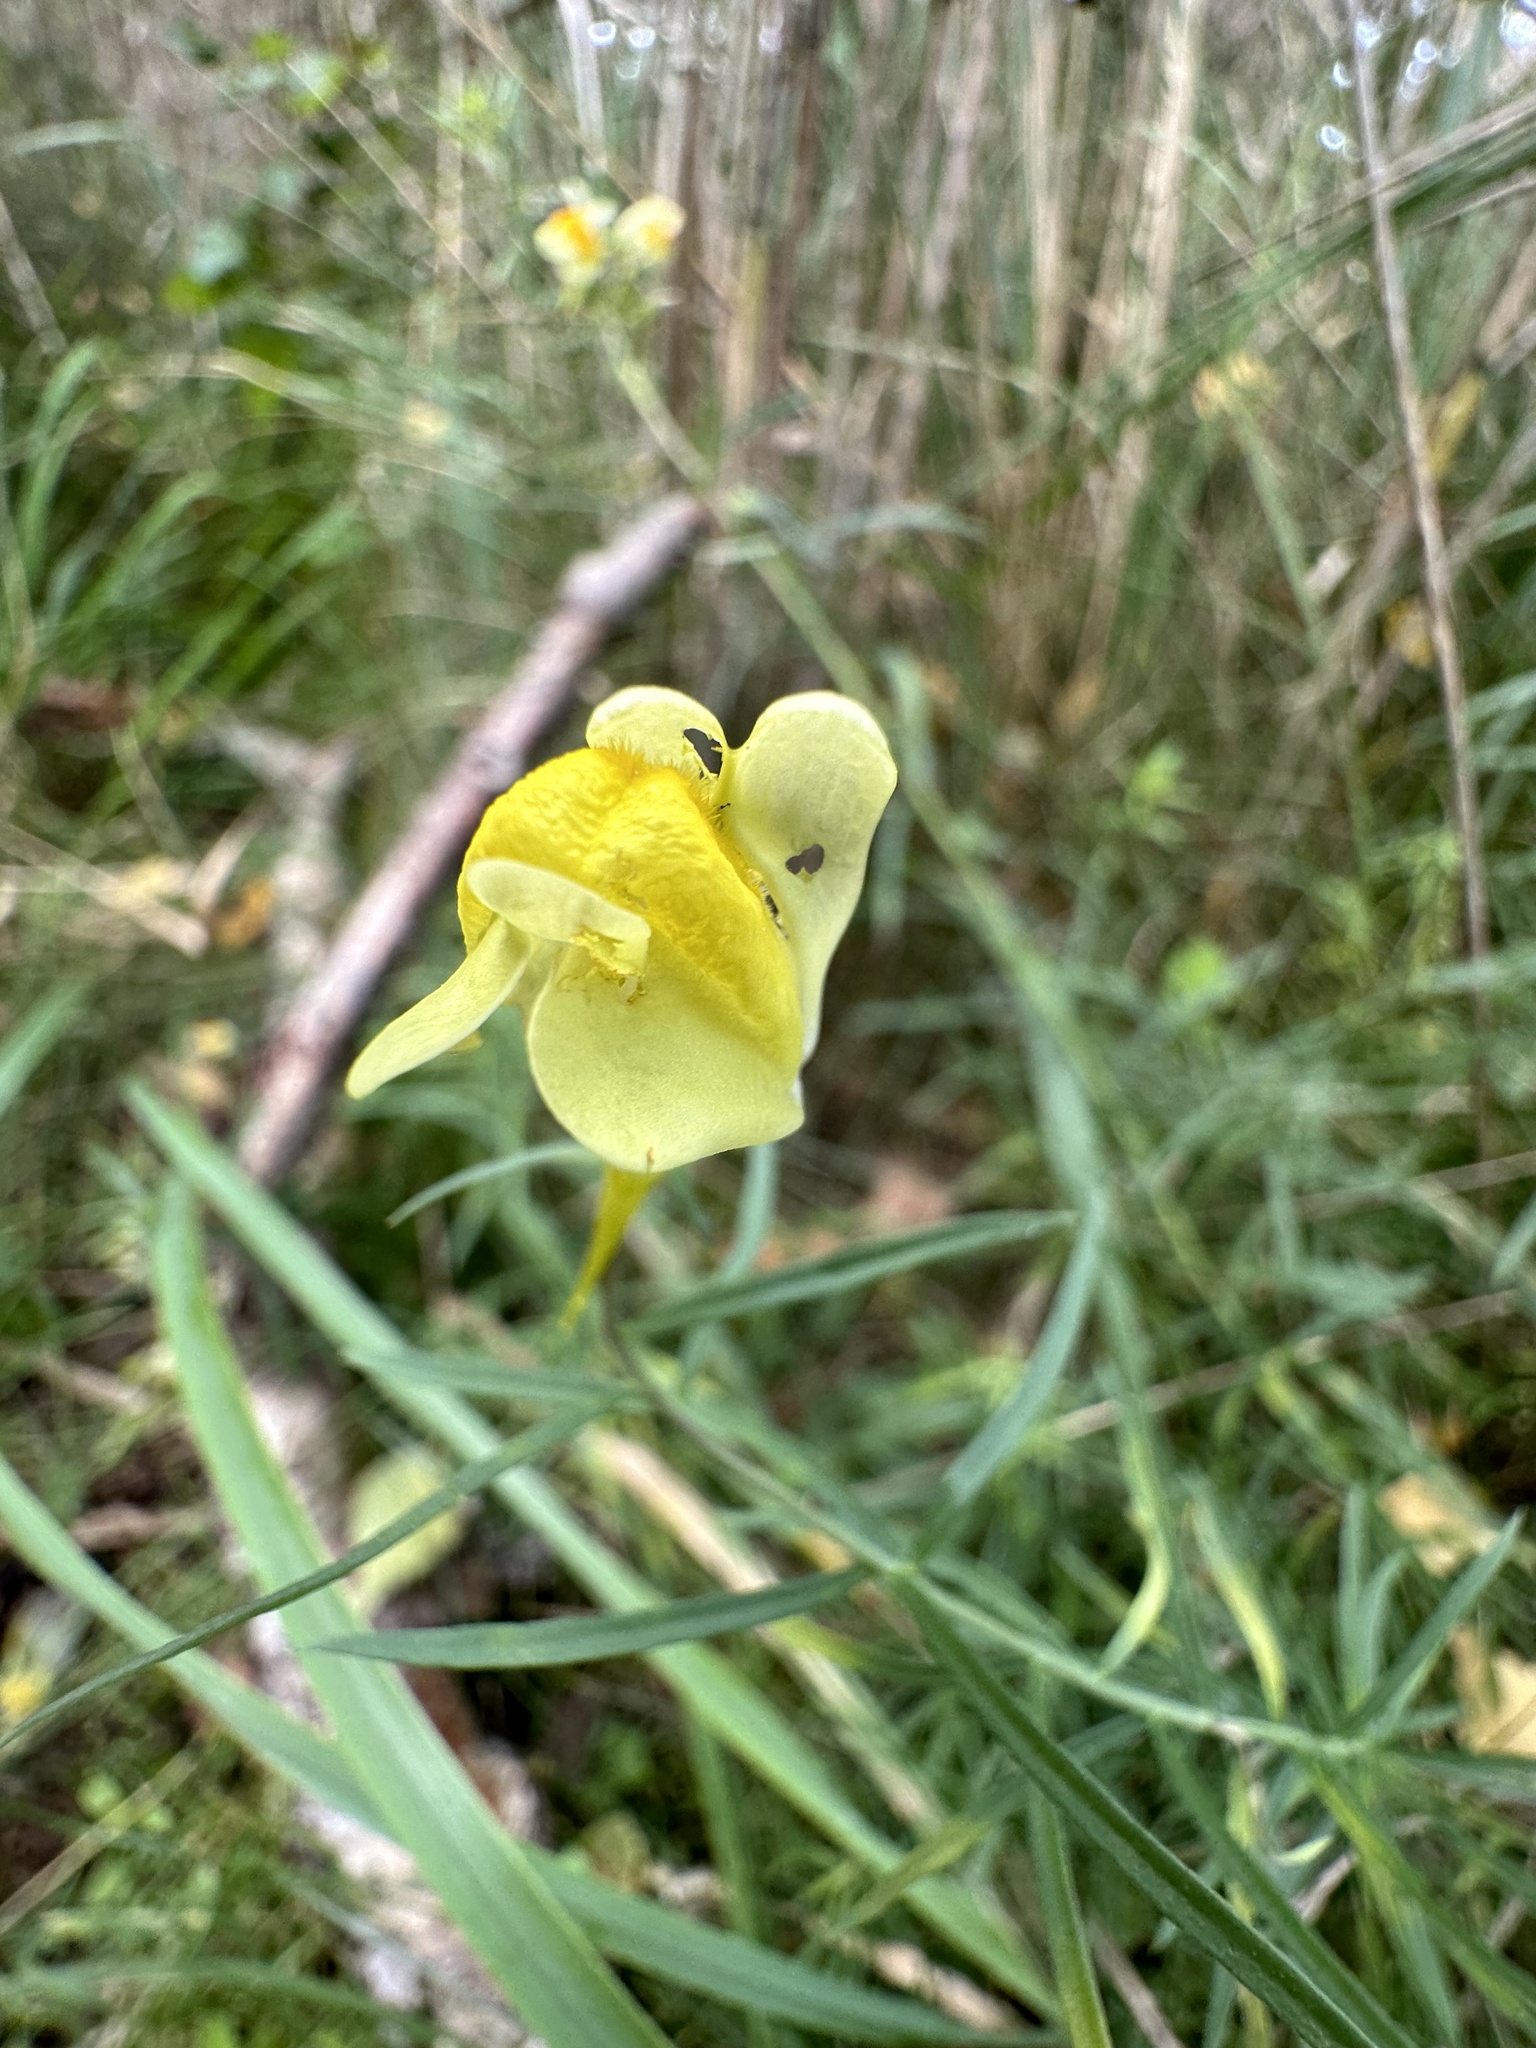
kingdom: Plantae
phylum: Tracheophyta
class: Magnoliopsida
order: Lamiales
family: Plantaginaceae
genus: Linaria
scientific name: Linaria vulgaris
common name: Butter and eggs
